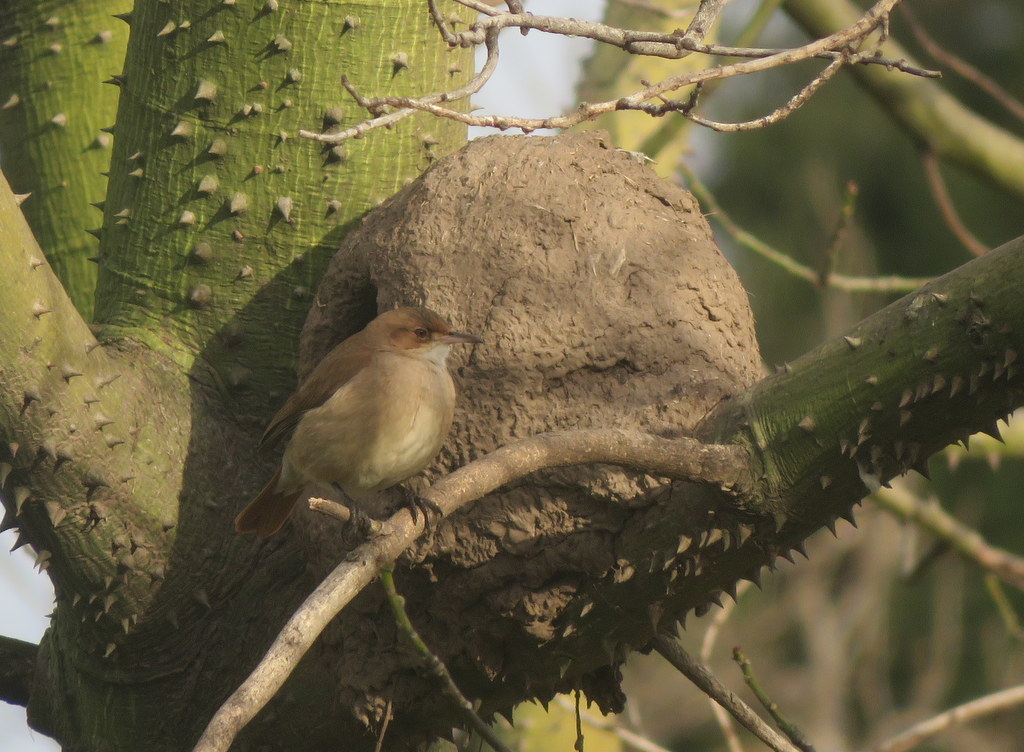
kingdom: Animalia
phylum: Chordata
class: Aves
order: Passeriformes
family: Furnariidae
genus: Furnarius
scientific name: Furnarius rufus
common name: Rufous hornero
